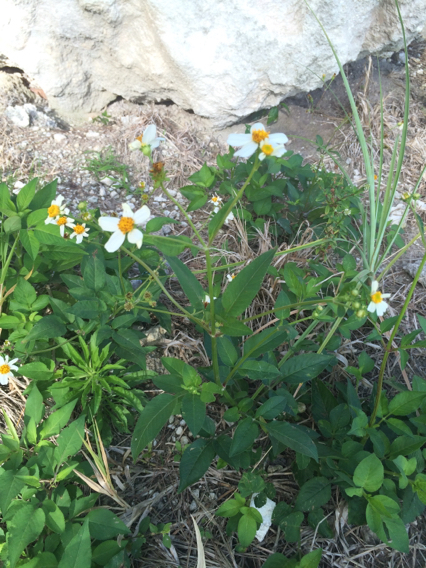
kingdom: Plantae
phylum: Tracheophyta
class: Magnoliopsida
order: Asterales
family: Asteraceae
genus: Bidens
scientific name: Bidens alba
